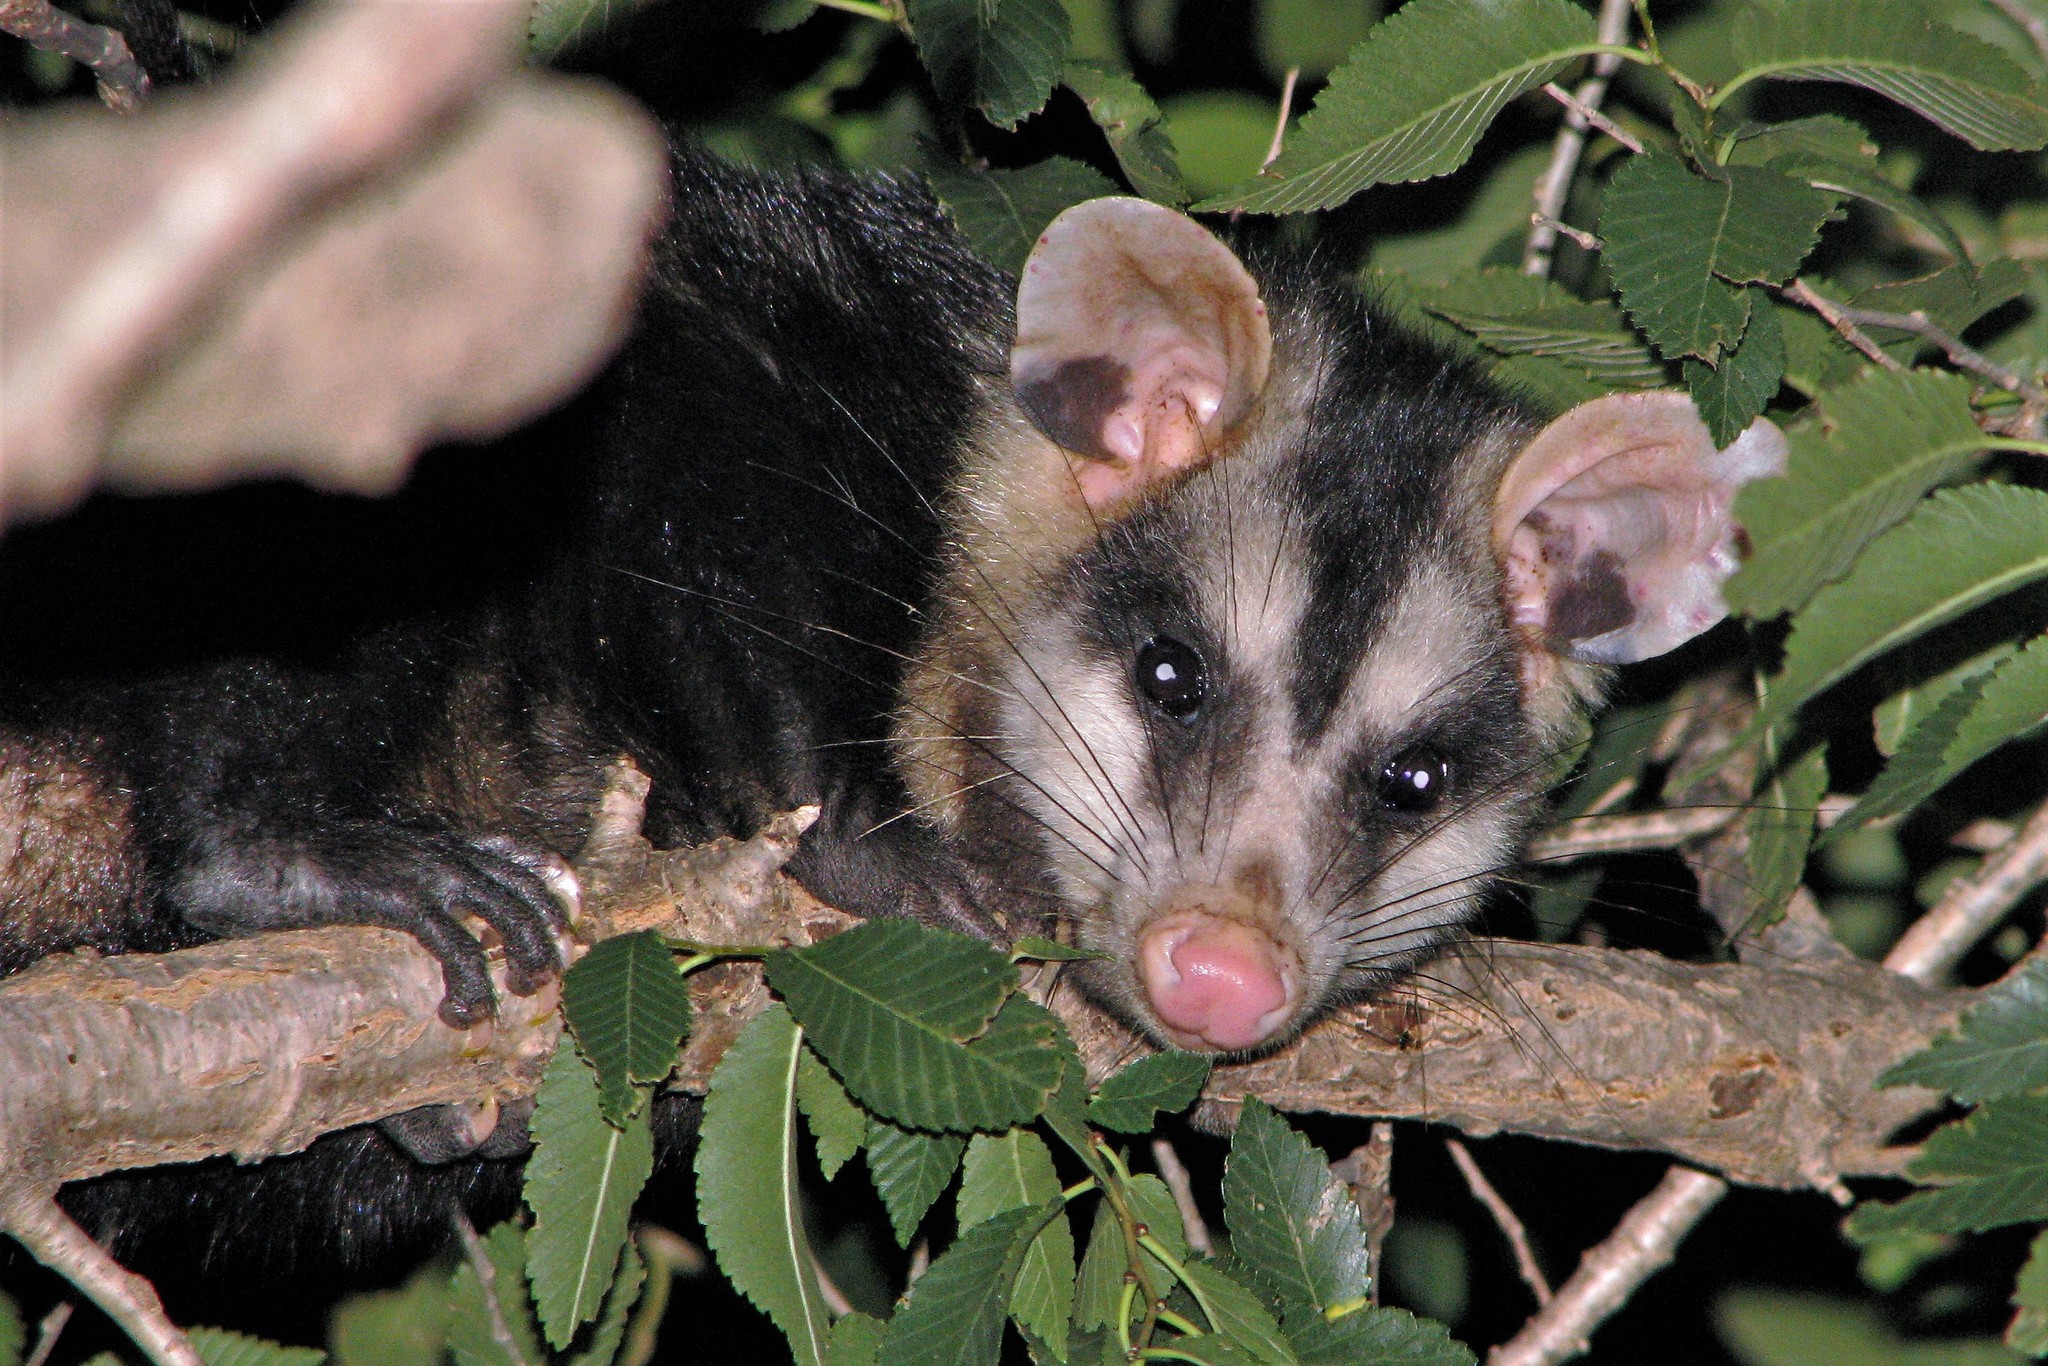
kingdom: Animalia
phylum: Chordata
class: Mammalia
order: Didelphimorphia
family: Didelphidae
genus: Didelphis
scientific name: Didelphis albiventris
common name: White-eared opossum
